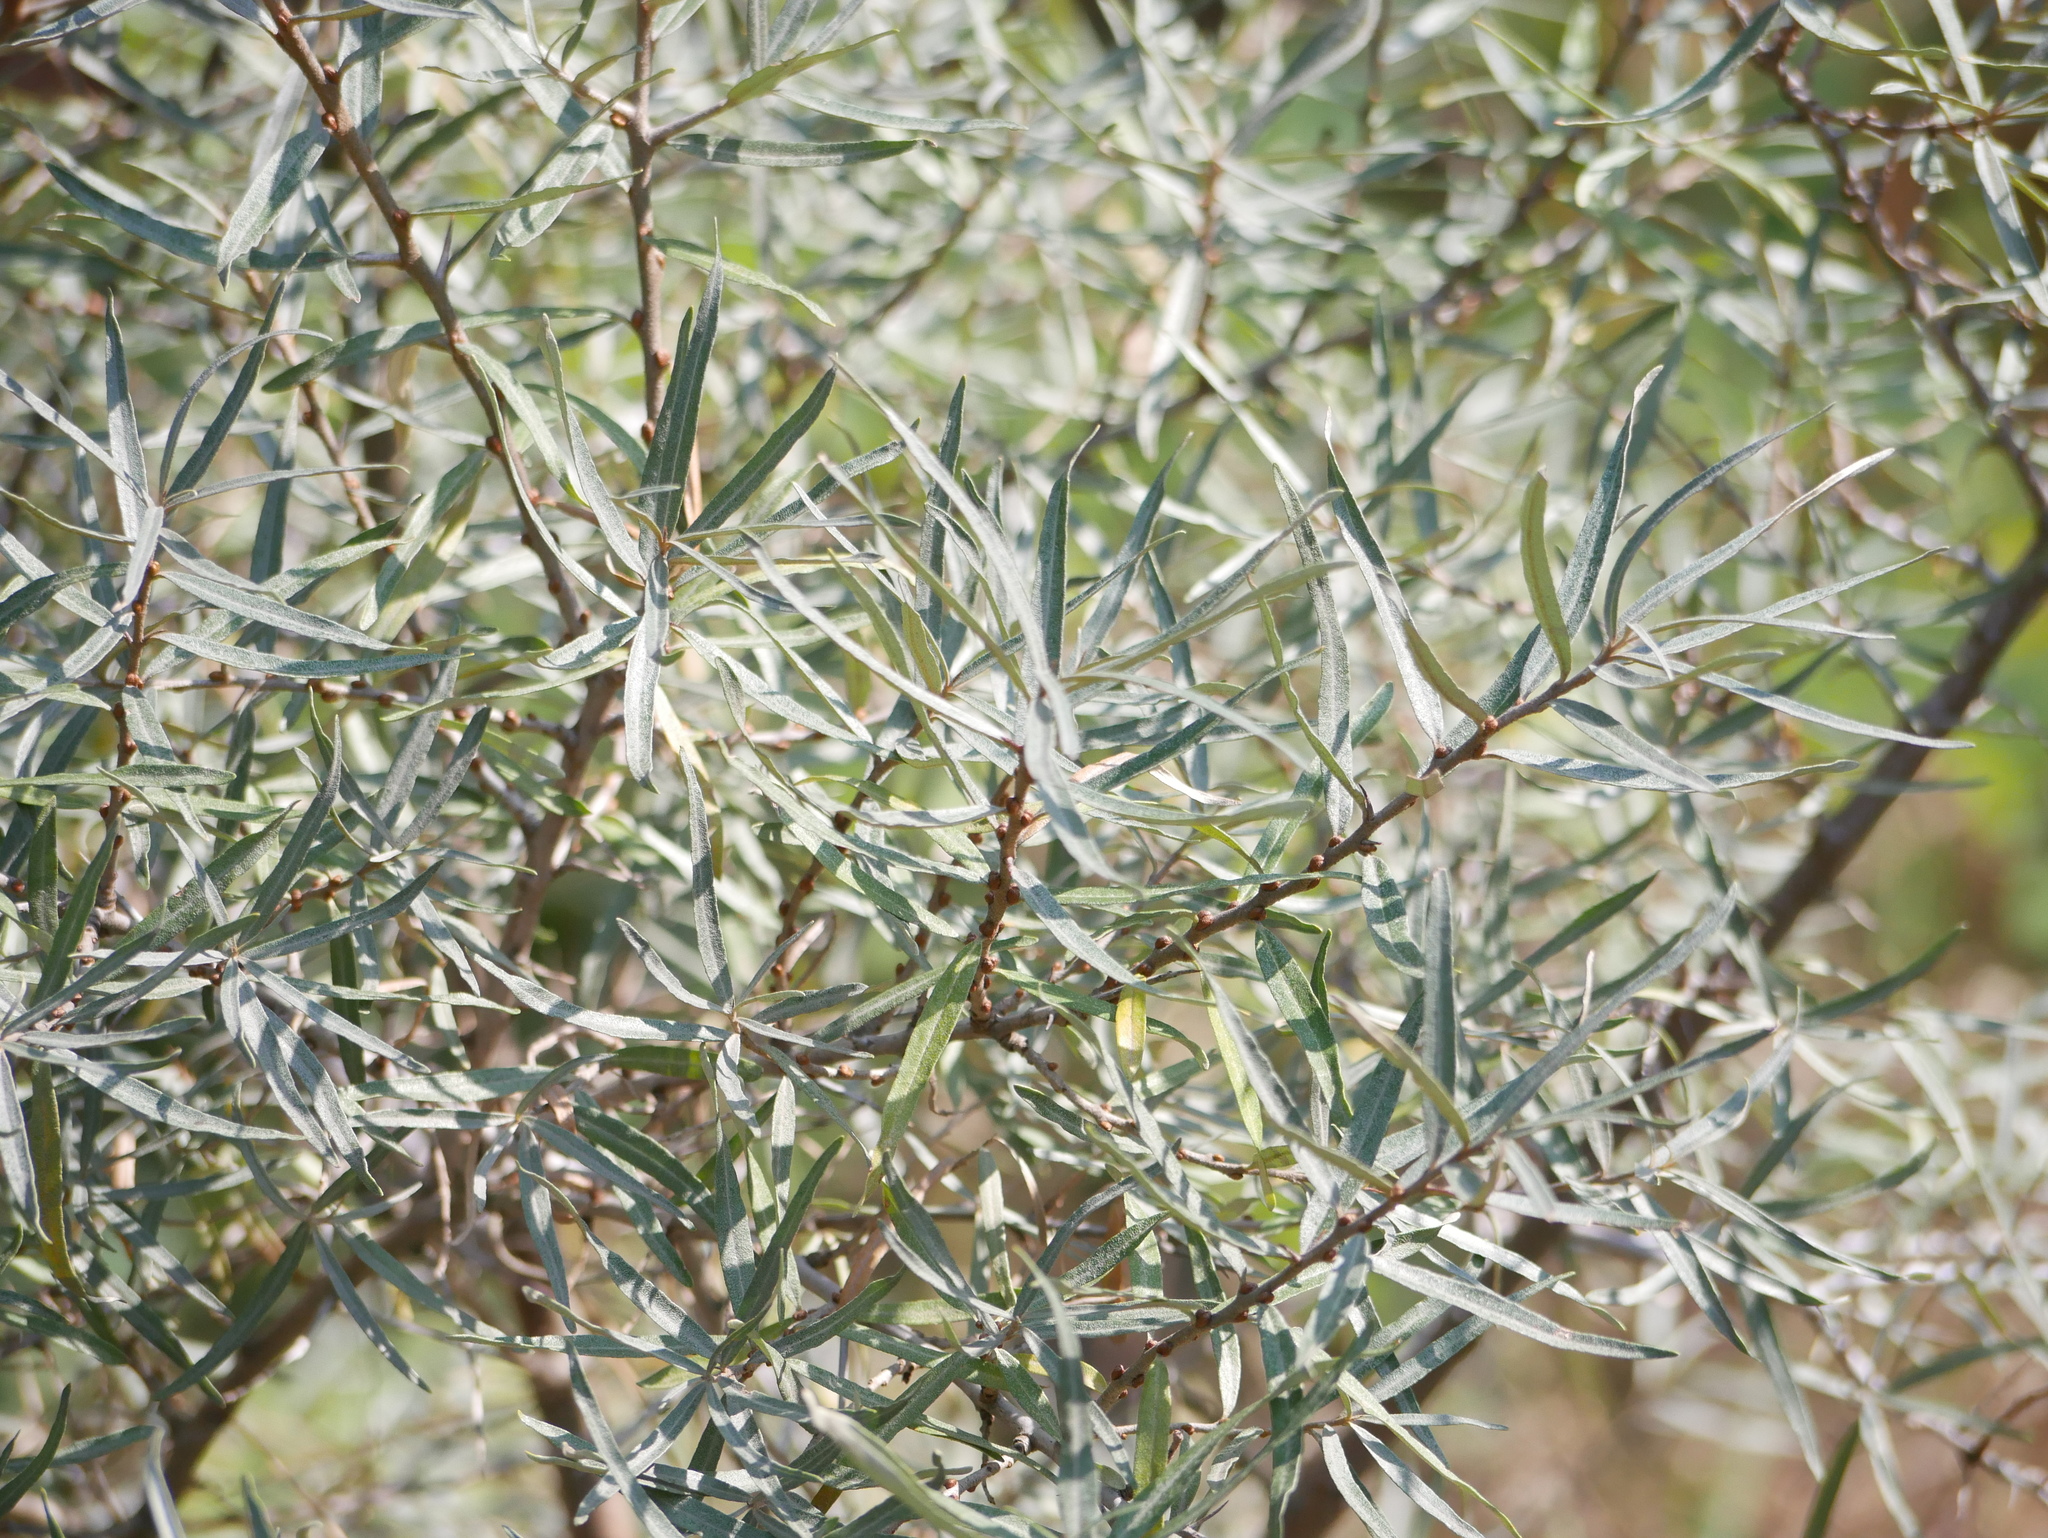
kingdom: Plantae
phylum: Tracheophyta
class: Magnoliopsida
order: Rosales
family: Elaeagnaceae
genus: Hippophae
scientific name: Hippophae rhamnoides
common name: Sea-buckthorn
